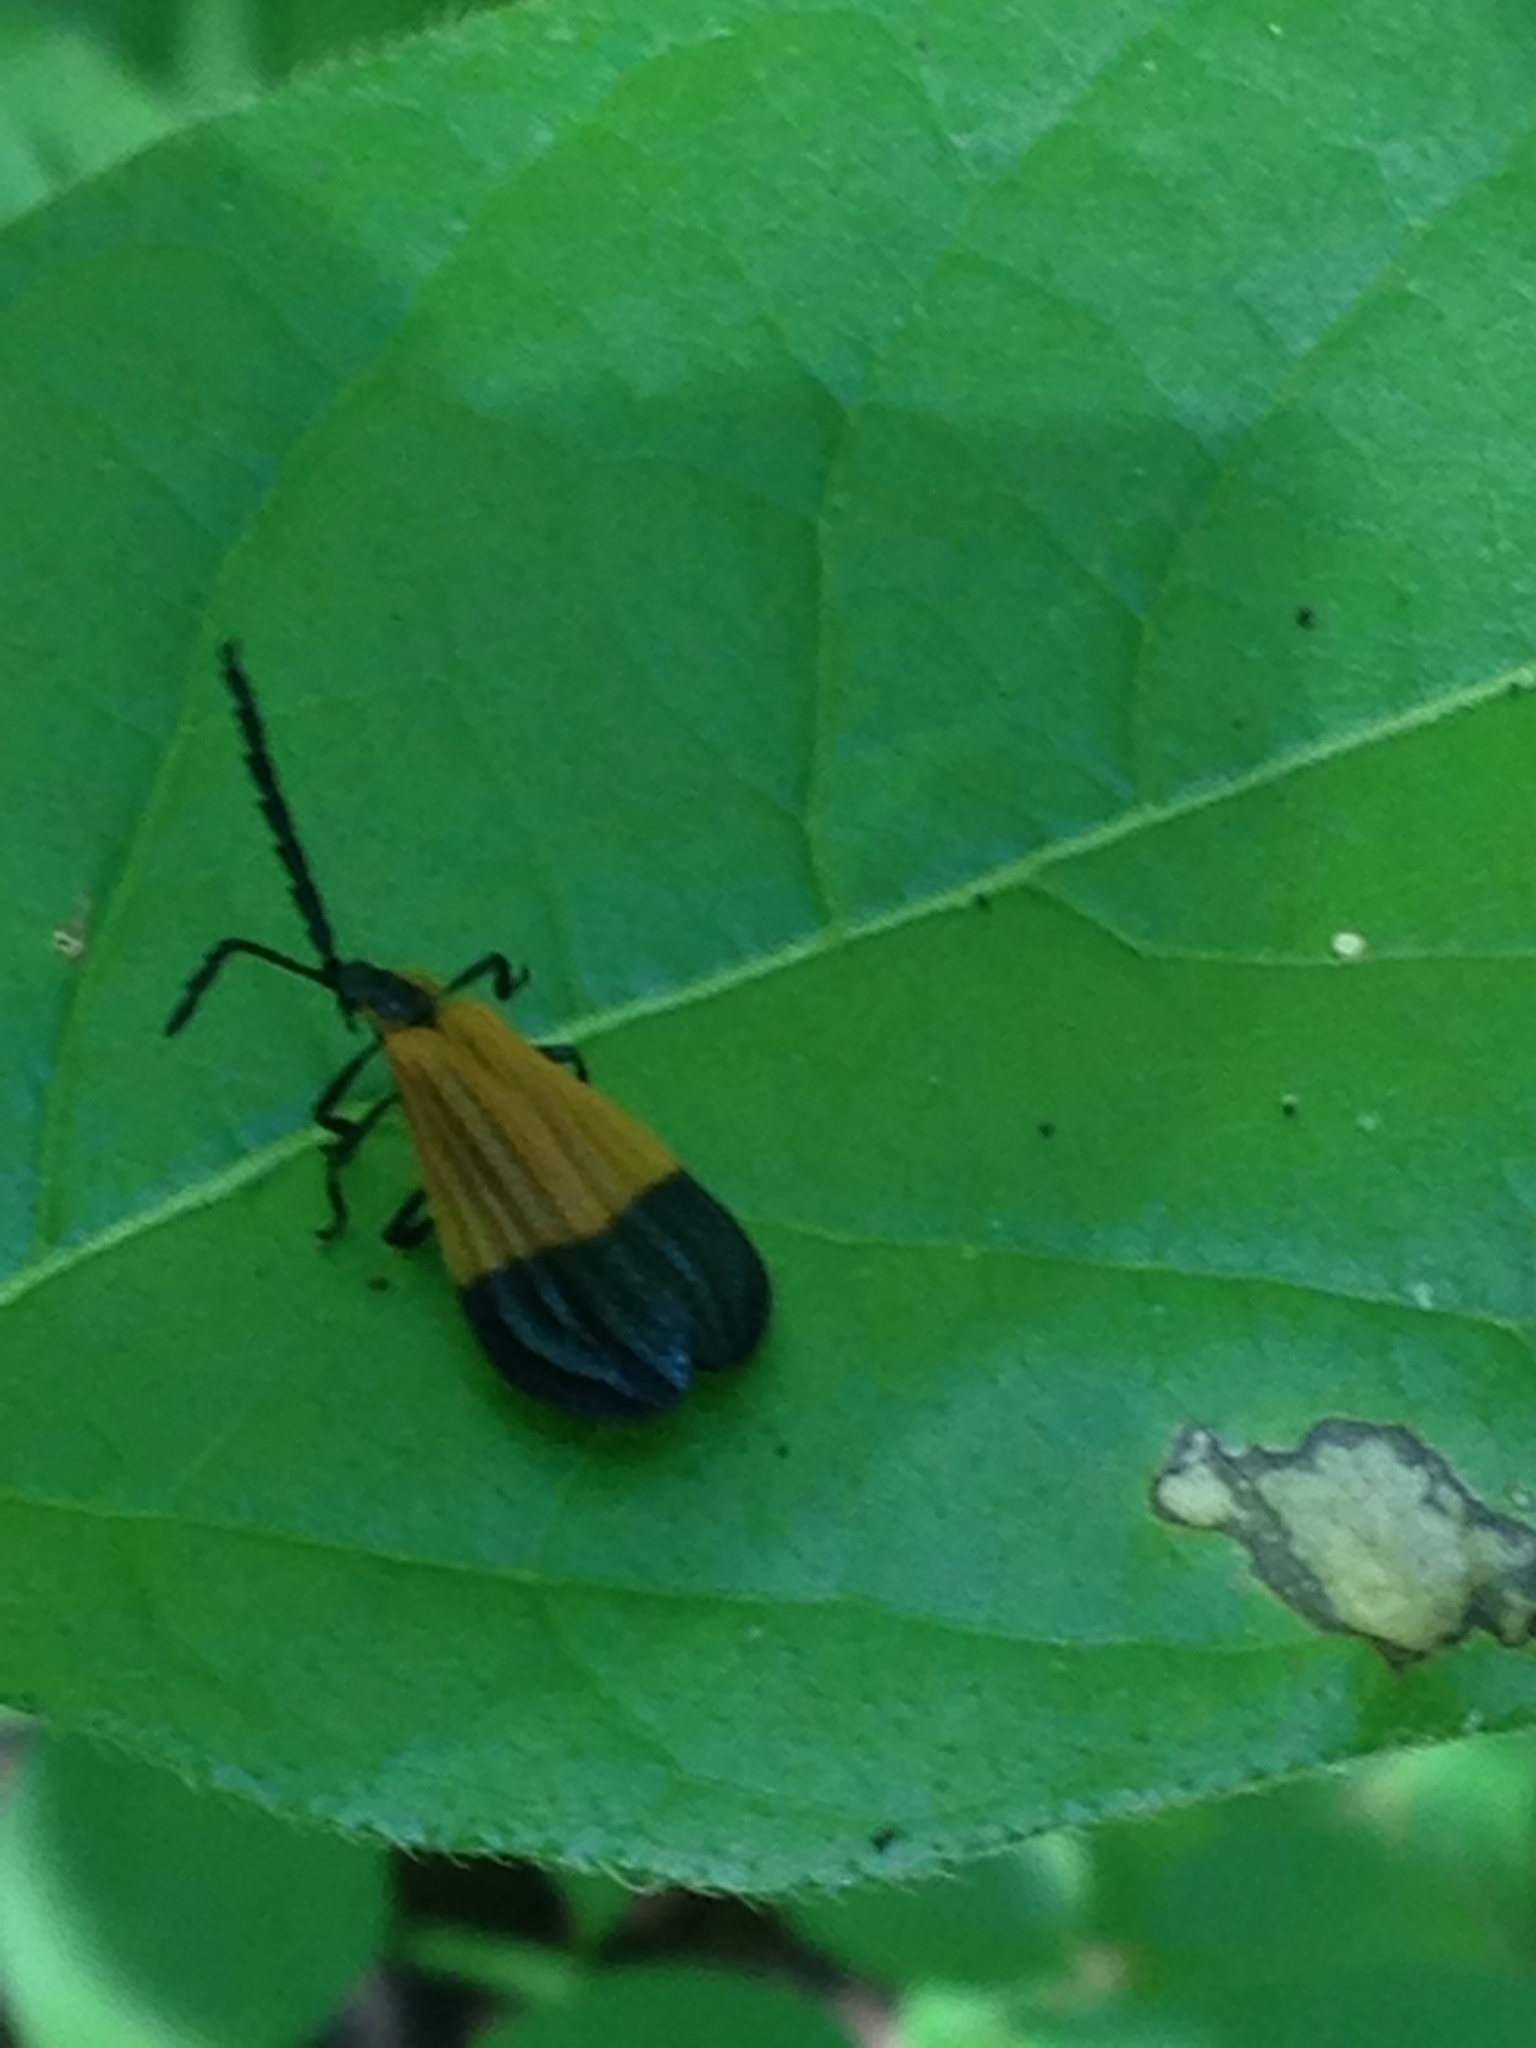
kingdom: Animalia
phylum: Arthropoda
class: Insecta
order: Coleoptera
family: Lycidae
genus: Calopteron
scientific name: Calopteron terminale
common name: End band net-winged beetle
